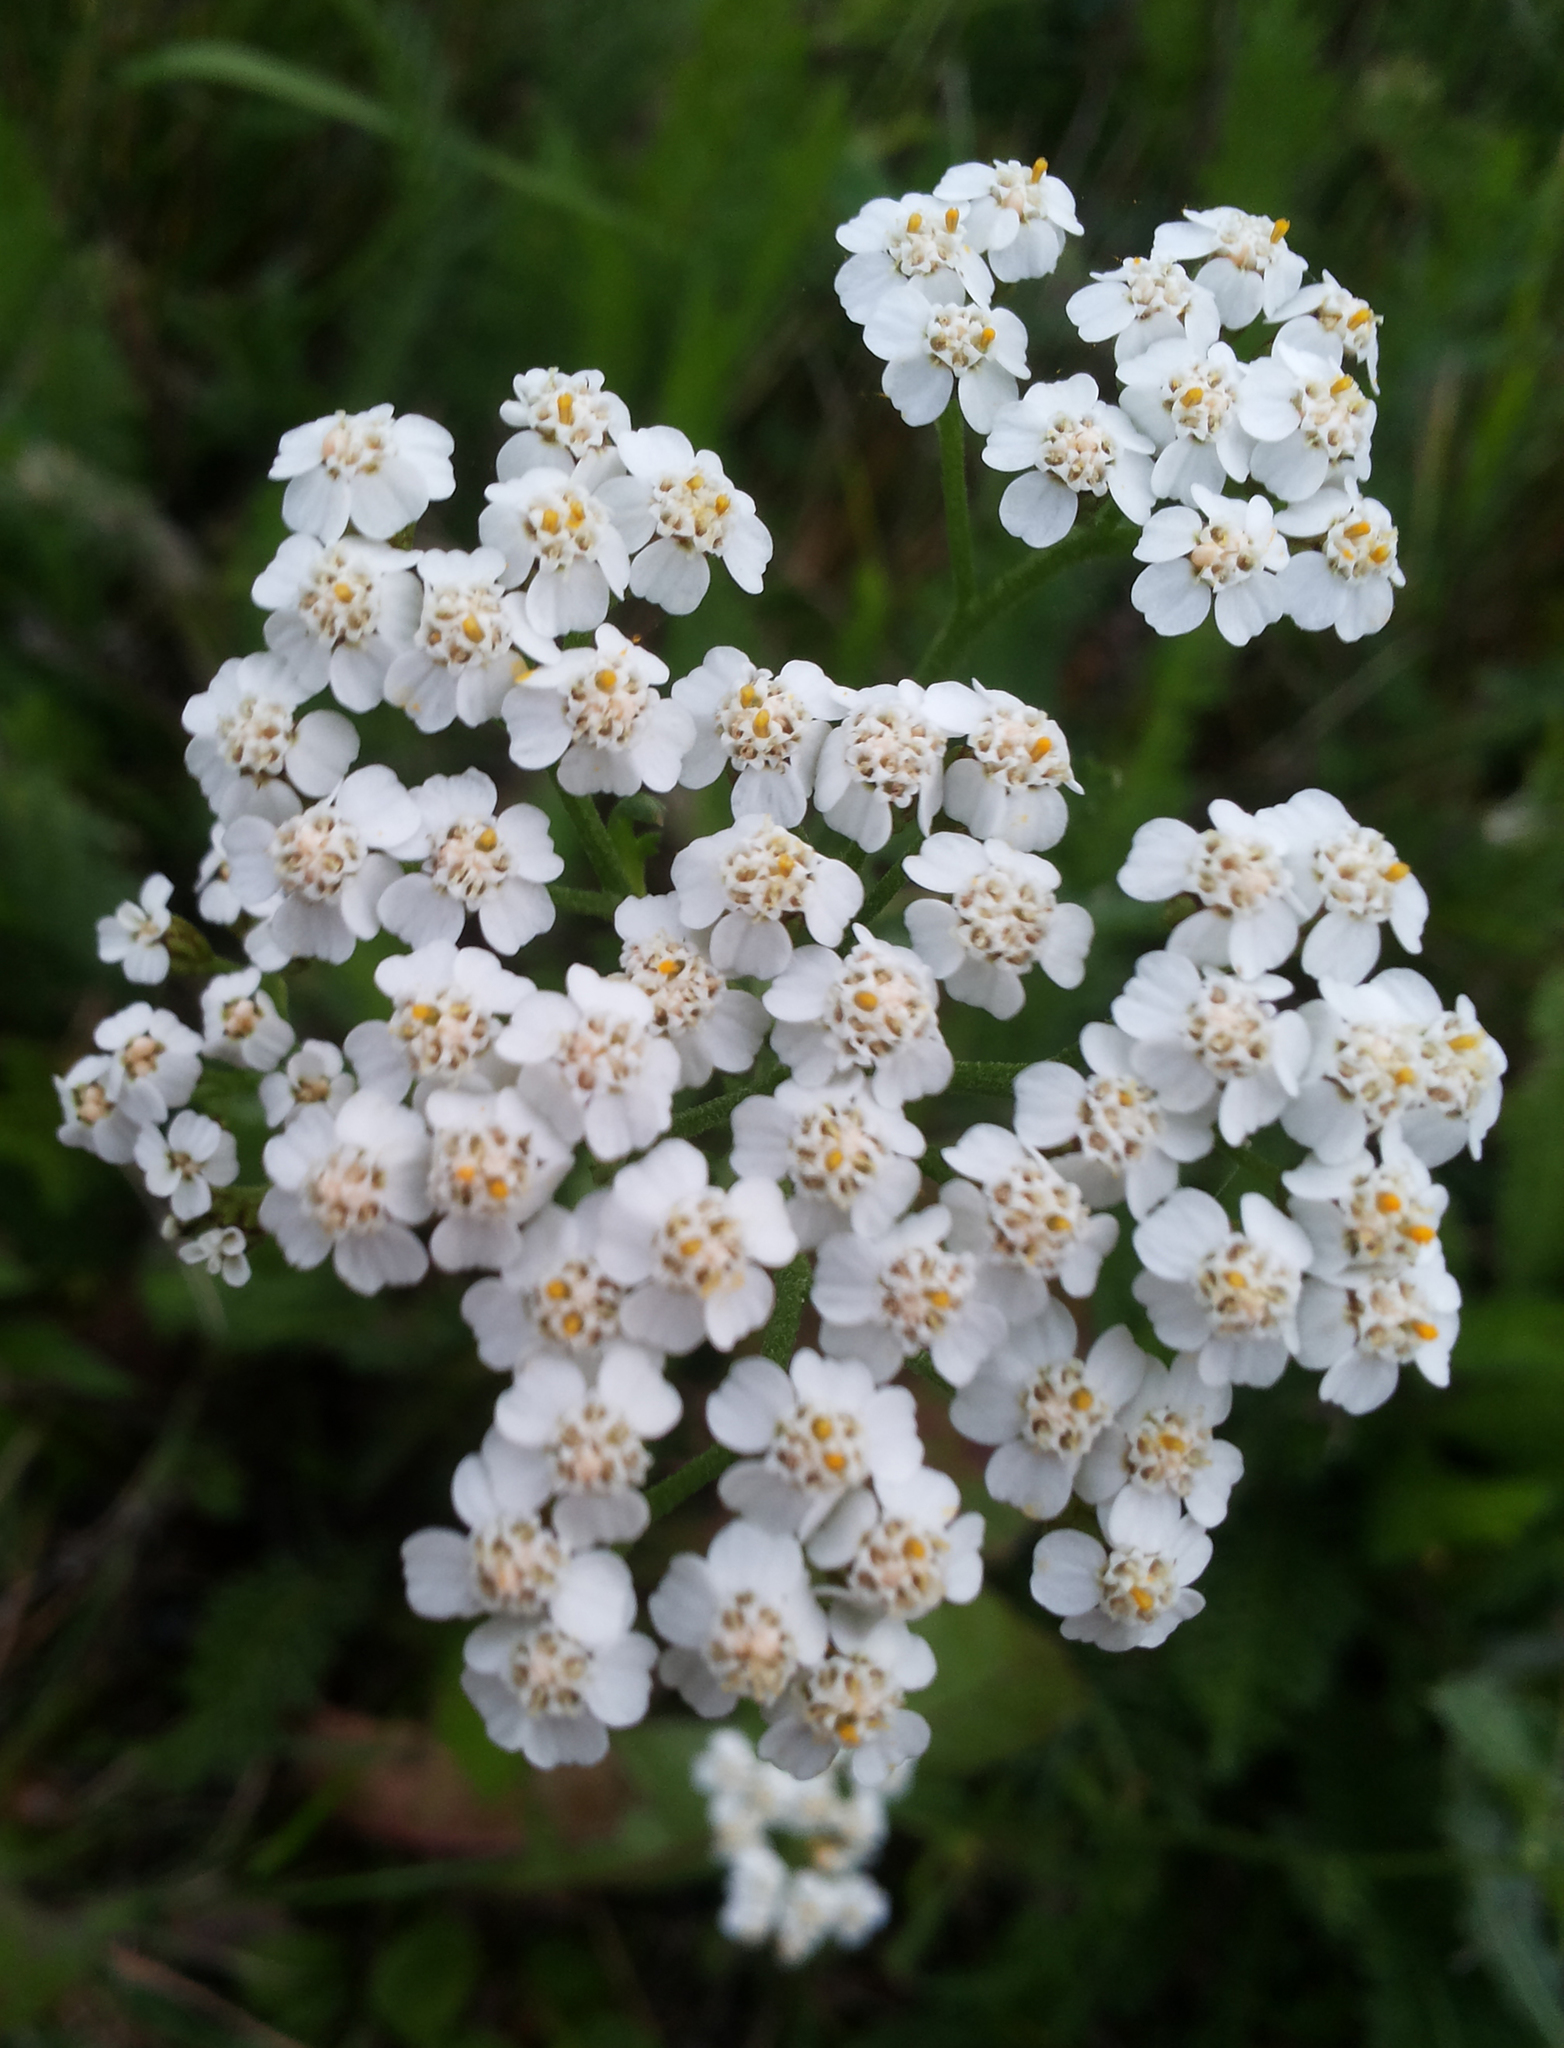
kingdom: Plantae
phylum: Tracheophyta
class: Magnoliopsida
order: Asterales
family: Asteraceae
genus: Achillea
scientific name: Achillea millefolium
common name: Yarrow
